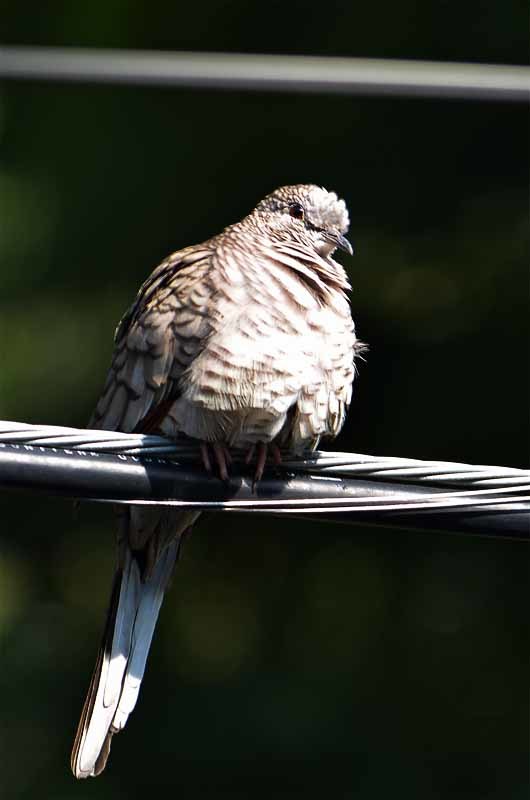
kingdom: Animalia
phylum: Chordata
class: Aves
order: Columbiformes
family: Columbidae
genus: Columbina
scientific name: Columbina inca
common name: Inca dove
